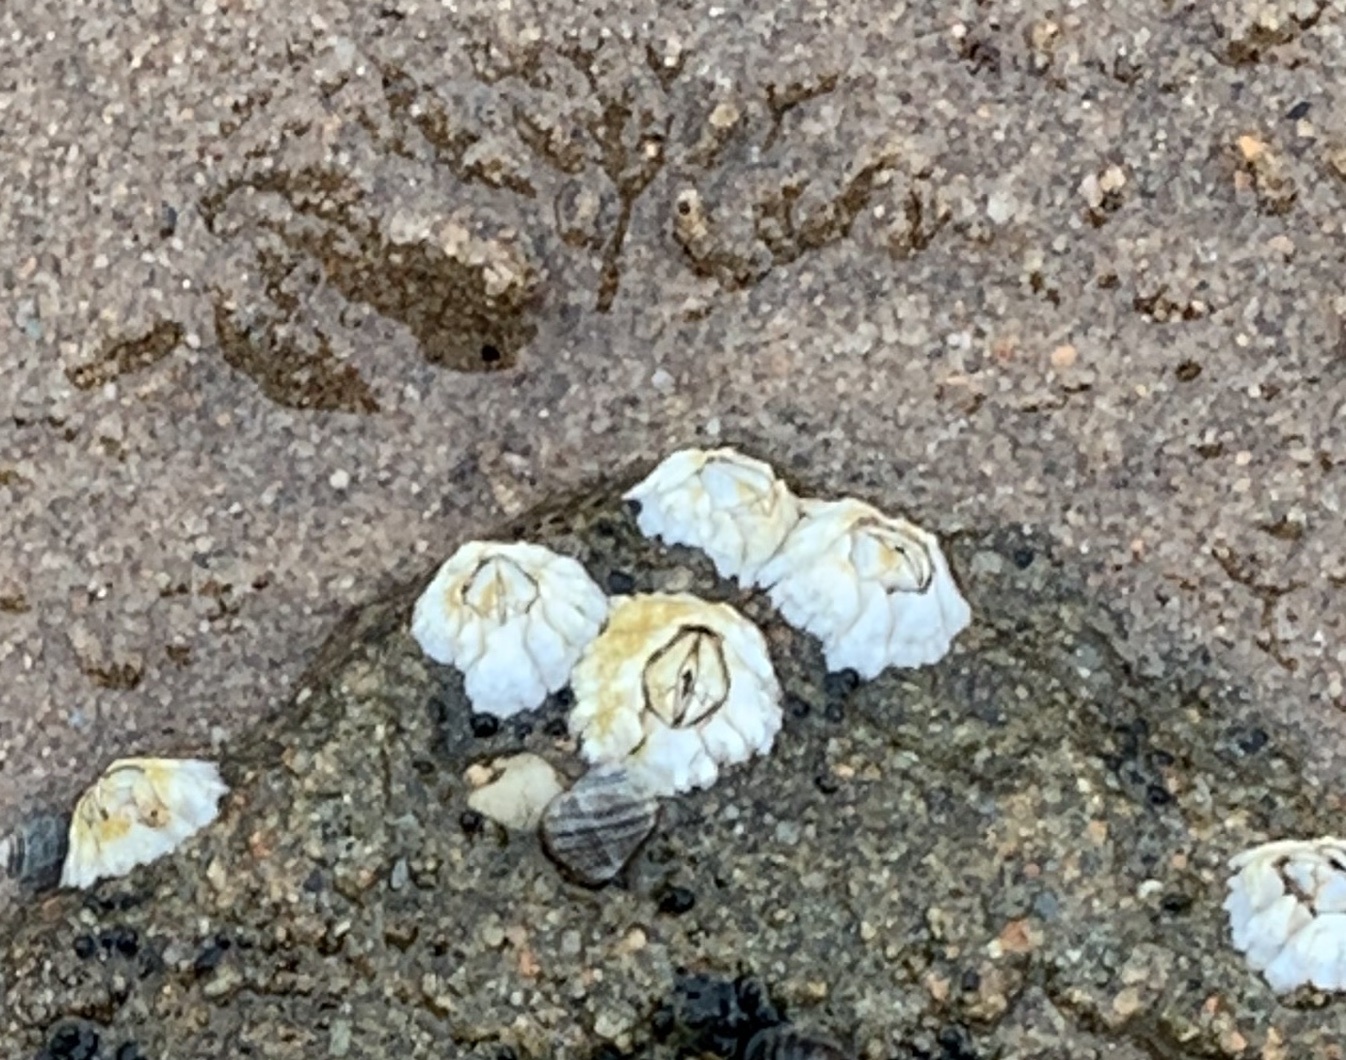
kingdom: Animalia
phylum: Arthropoda
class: Maxillopoda
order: Sessilia
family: Archaeobalanidae
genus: Semibalanus
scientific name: Semibalanus balanoides
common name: Acorn barnacle
